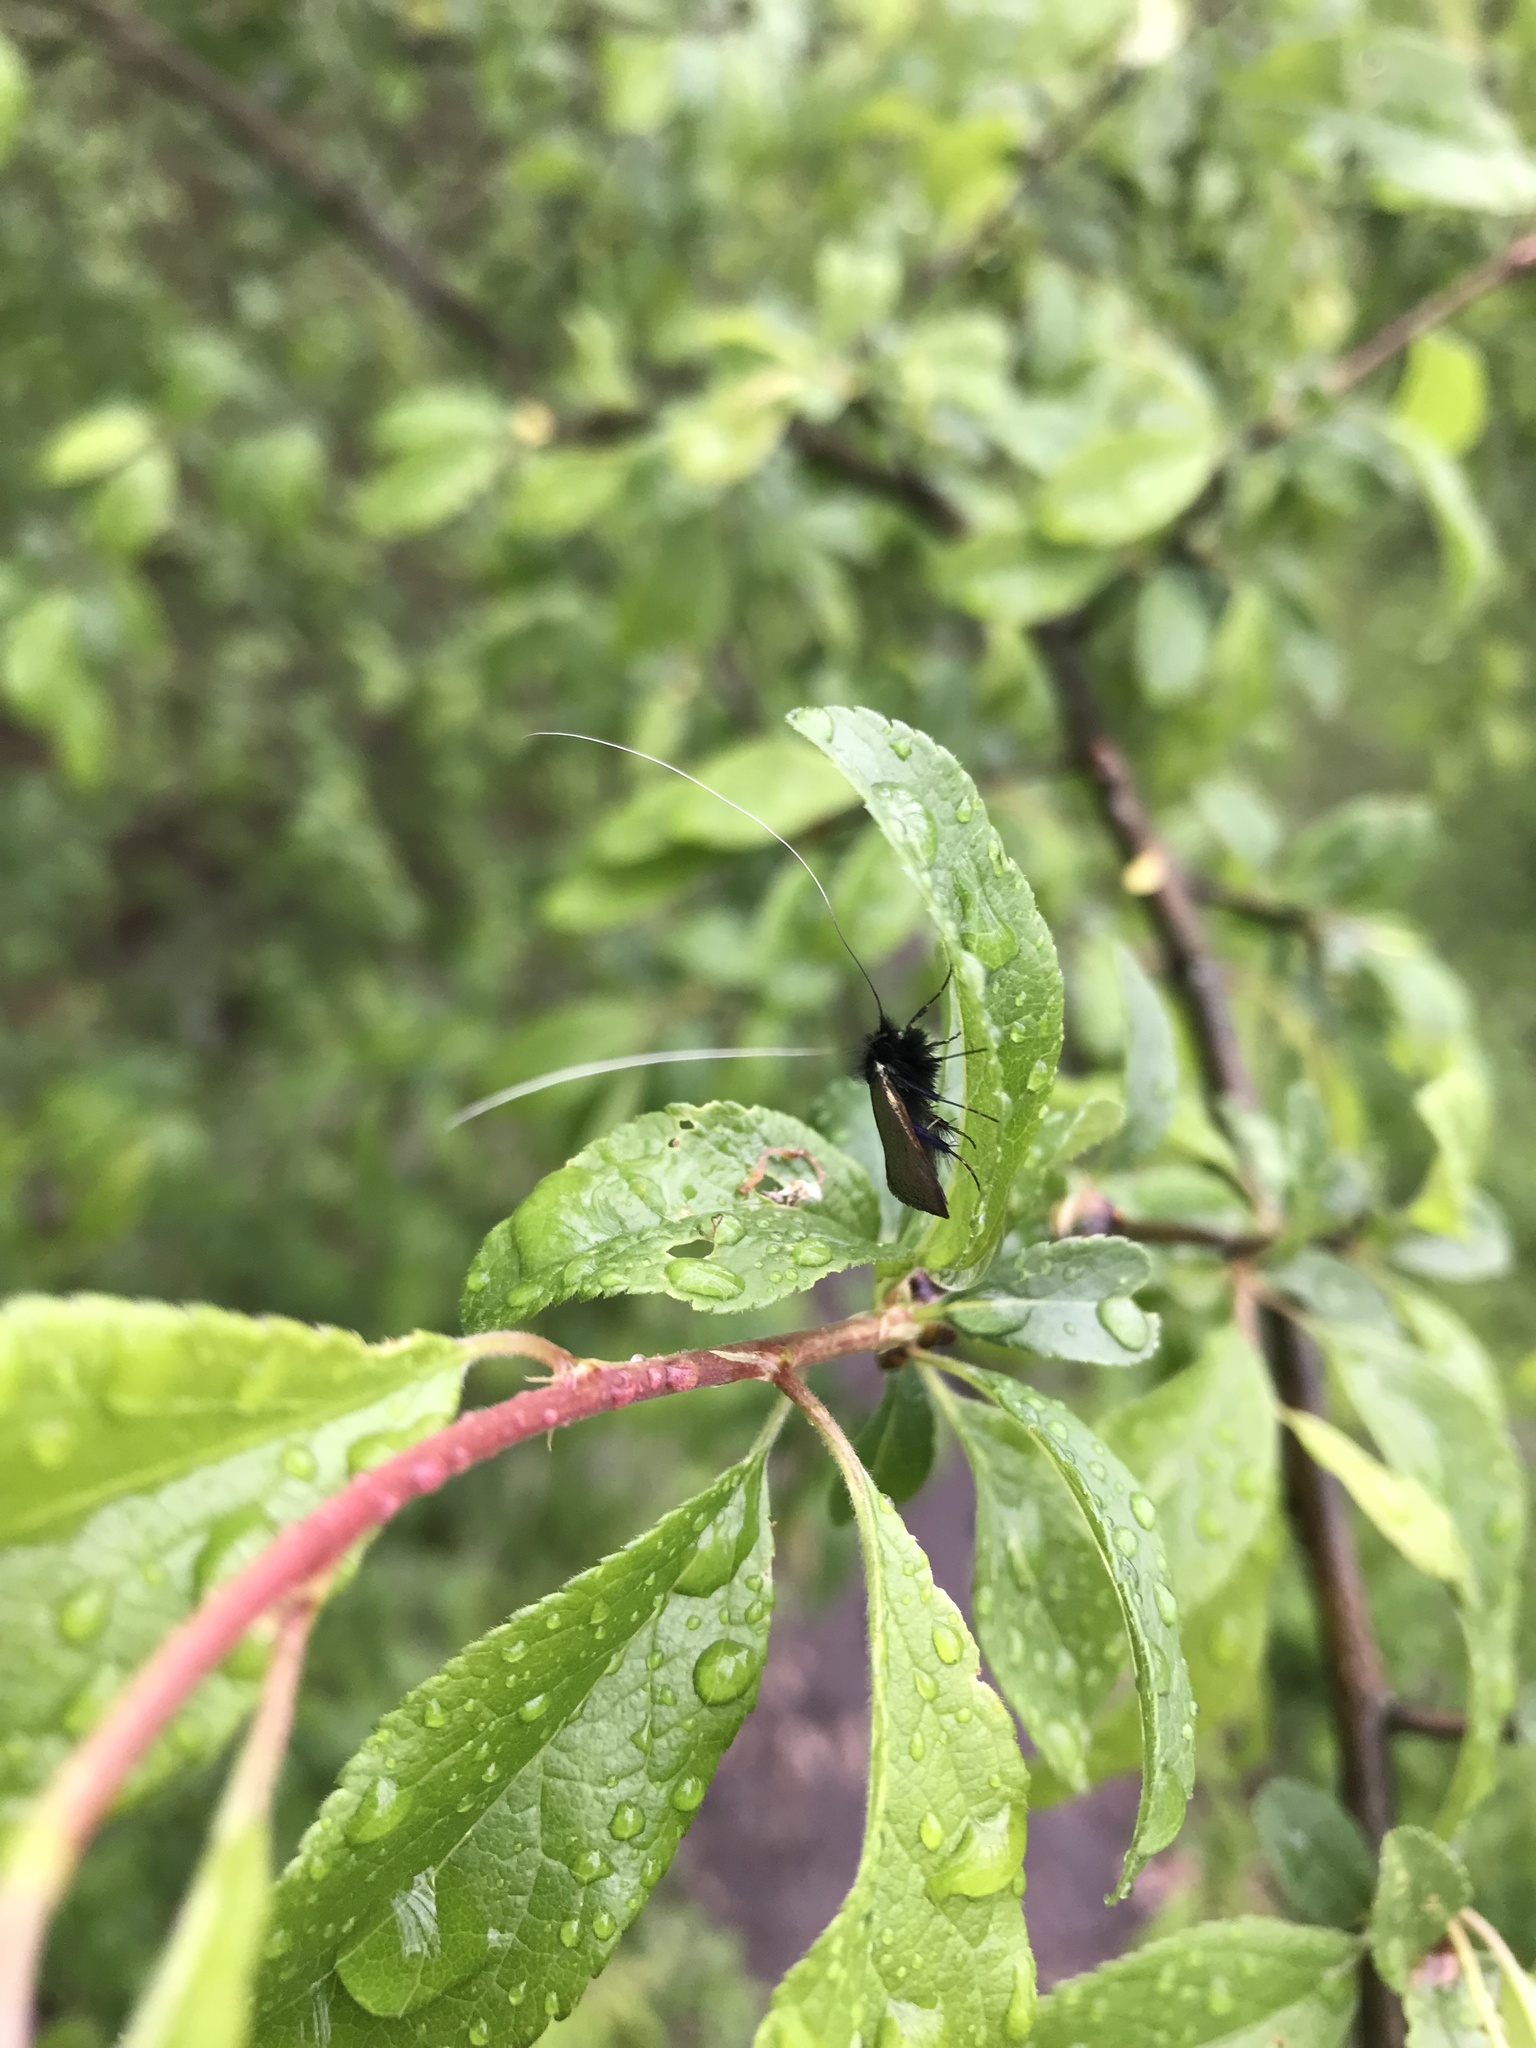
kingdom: Animalia
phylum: Arthropoda
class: Insecta
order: Lepidoptera
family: Adelidae
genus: Adela
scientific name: Adela viridella
